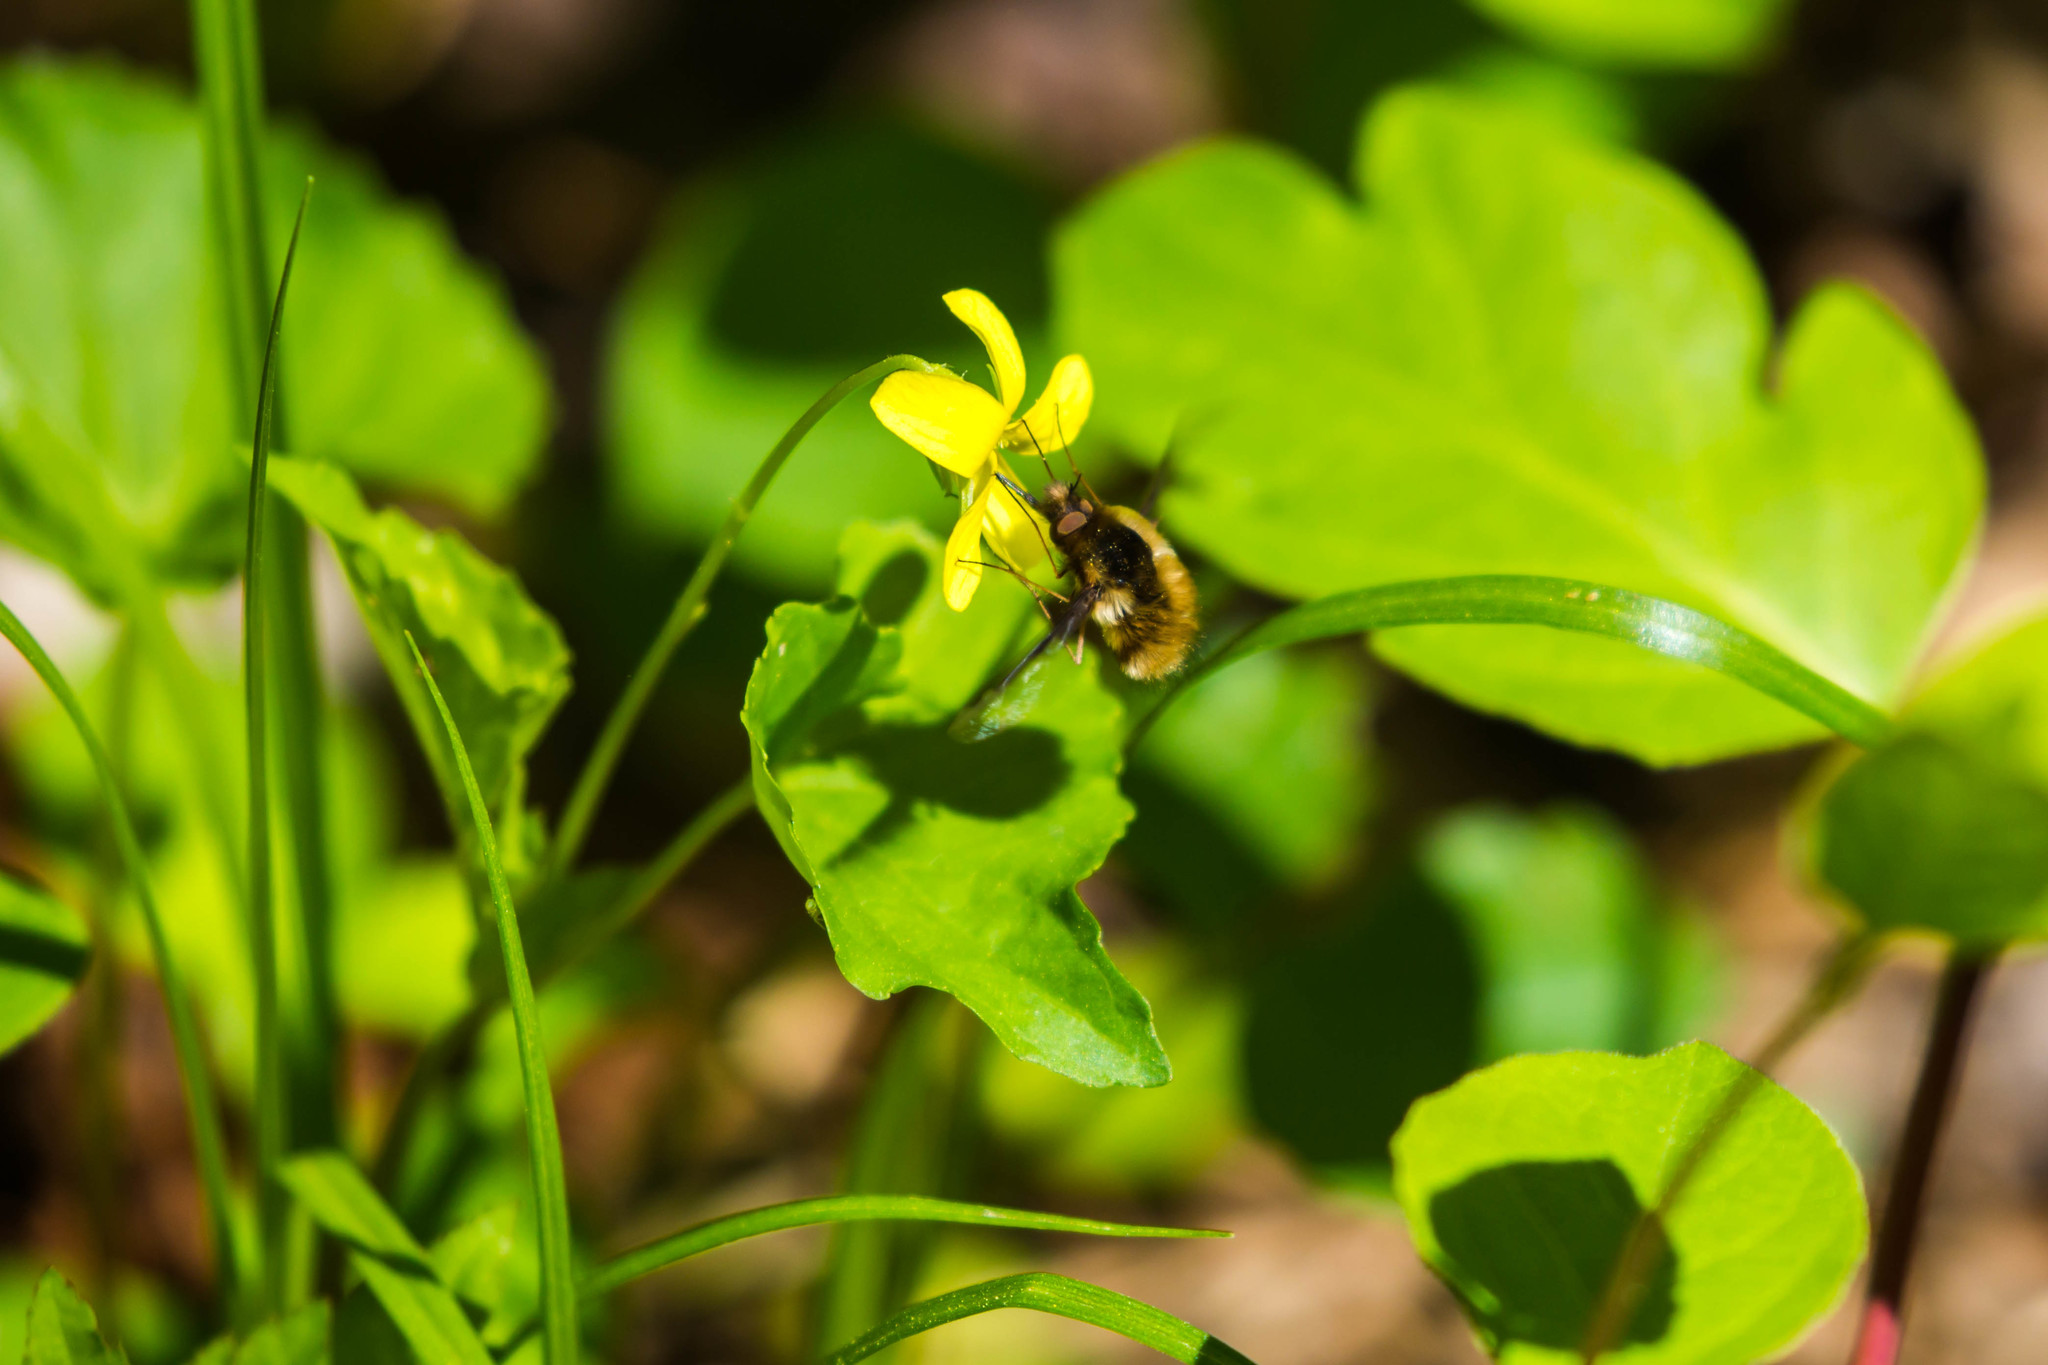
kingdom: Animalia
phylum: Arthropoda
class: Insecta
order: Diptera
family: Bombyliidae
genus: Bombylius
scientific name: Bombylius major
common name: Bee fly
